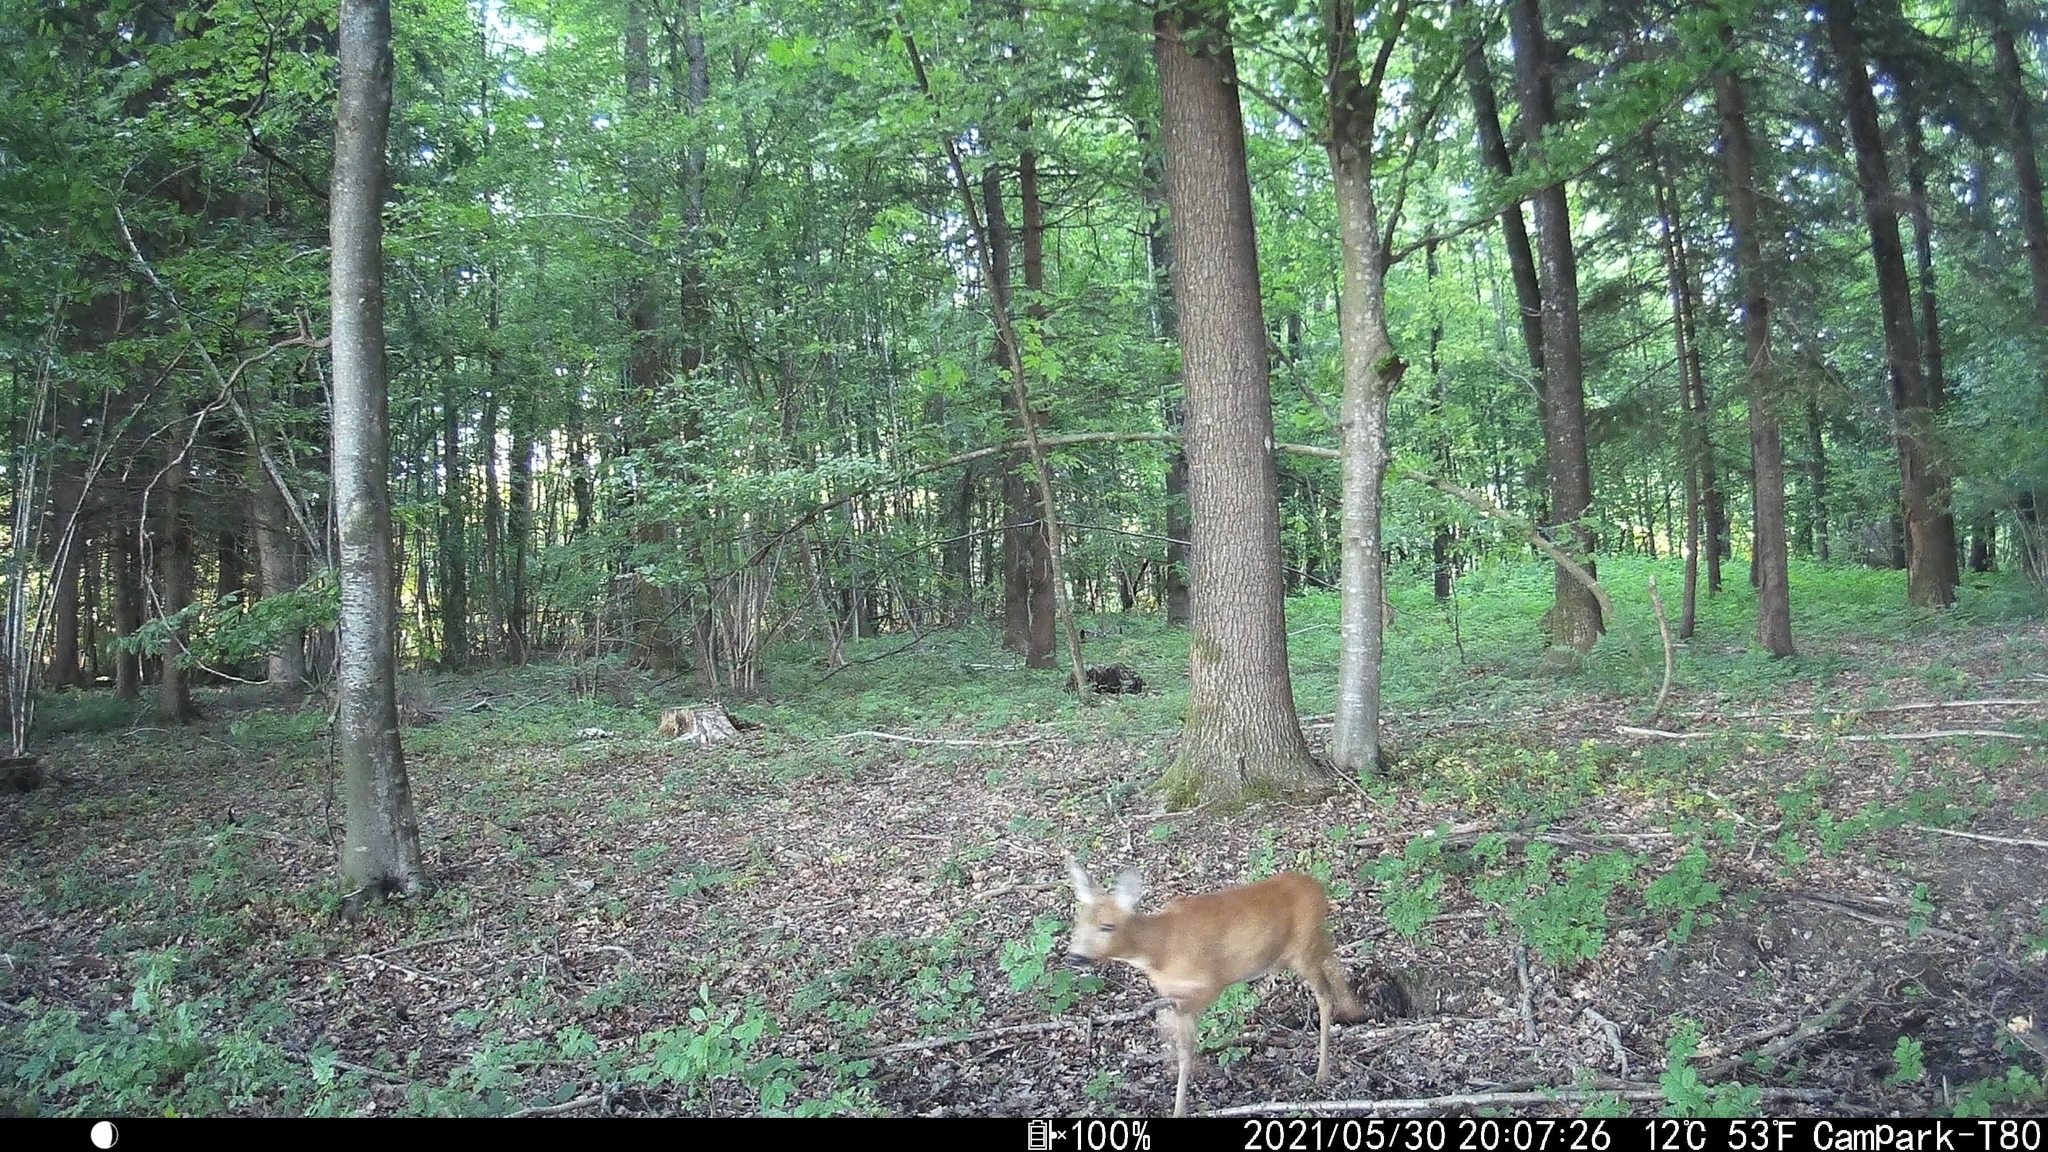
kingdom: Animalia
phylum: Chordata
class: Mammalia
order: Artiodactyla
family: Cervidae
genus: Capreolus
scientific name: Capreolus capreolus
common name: Western roe deer
